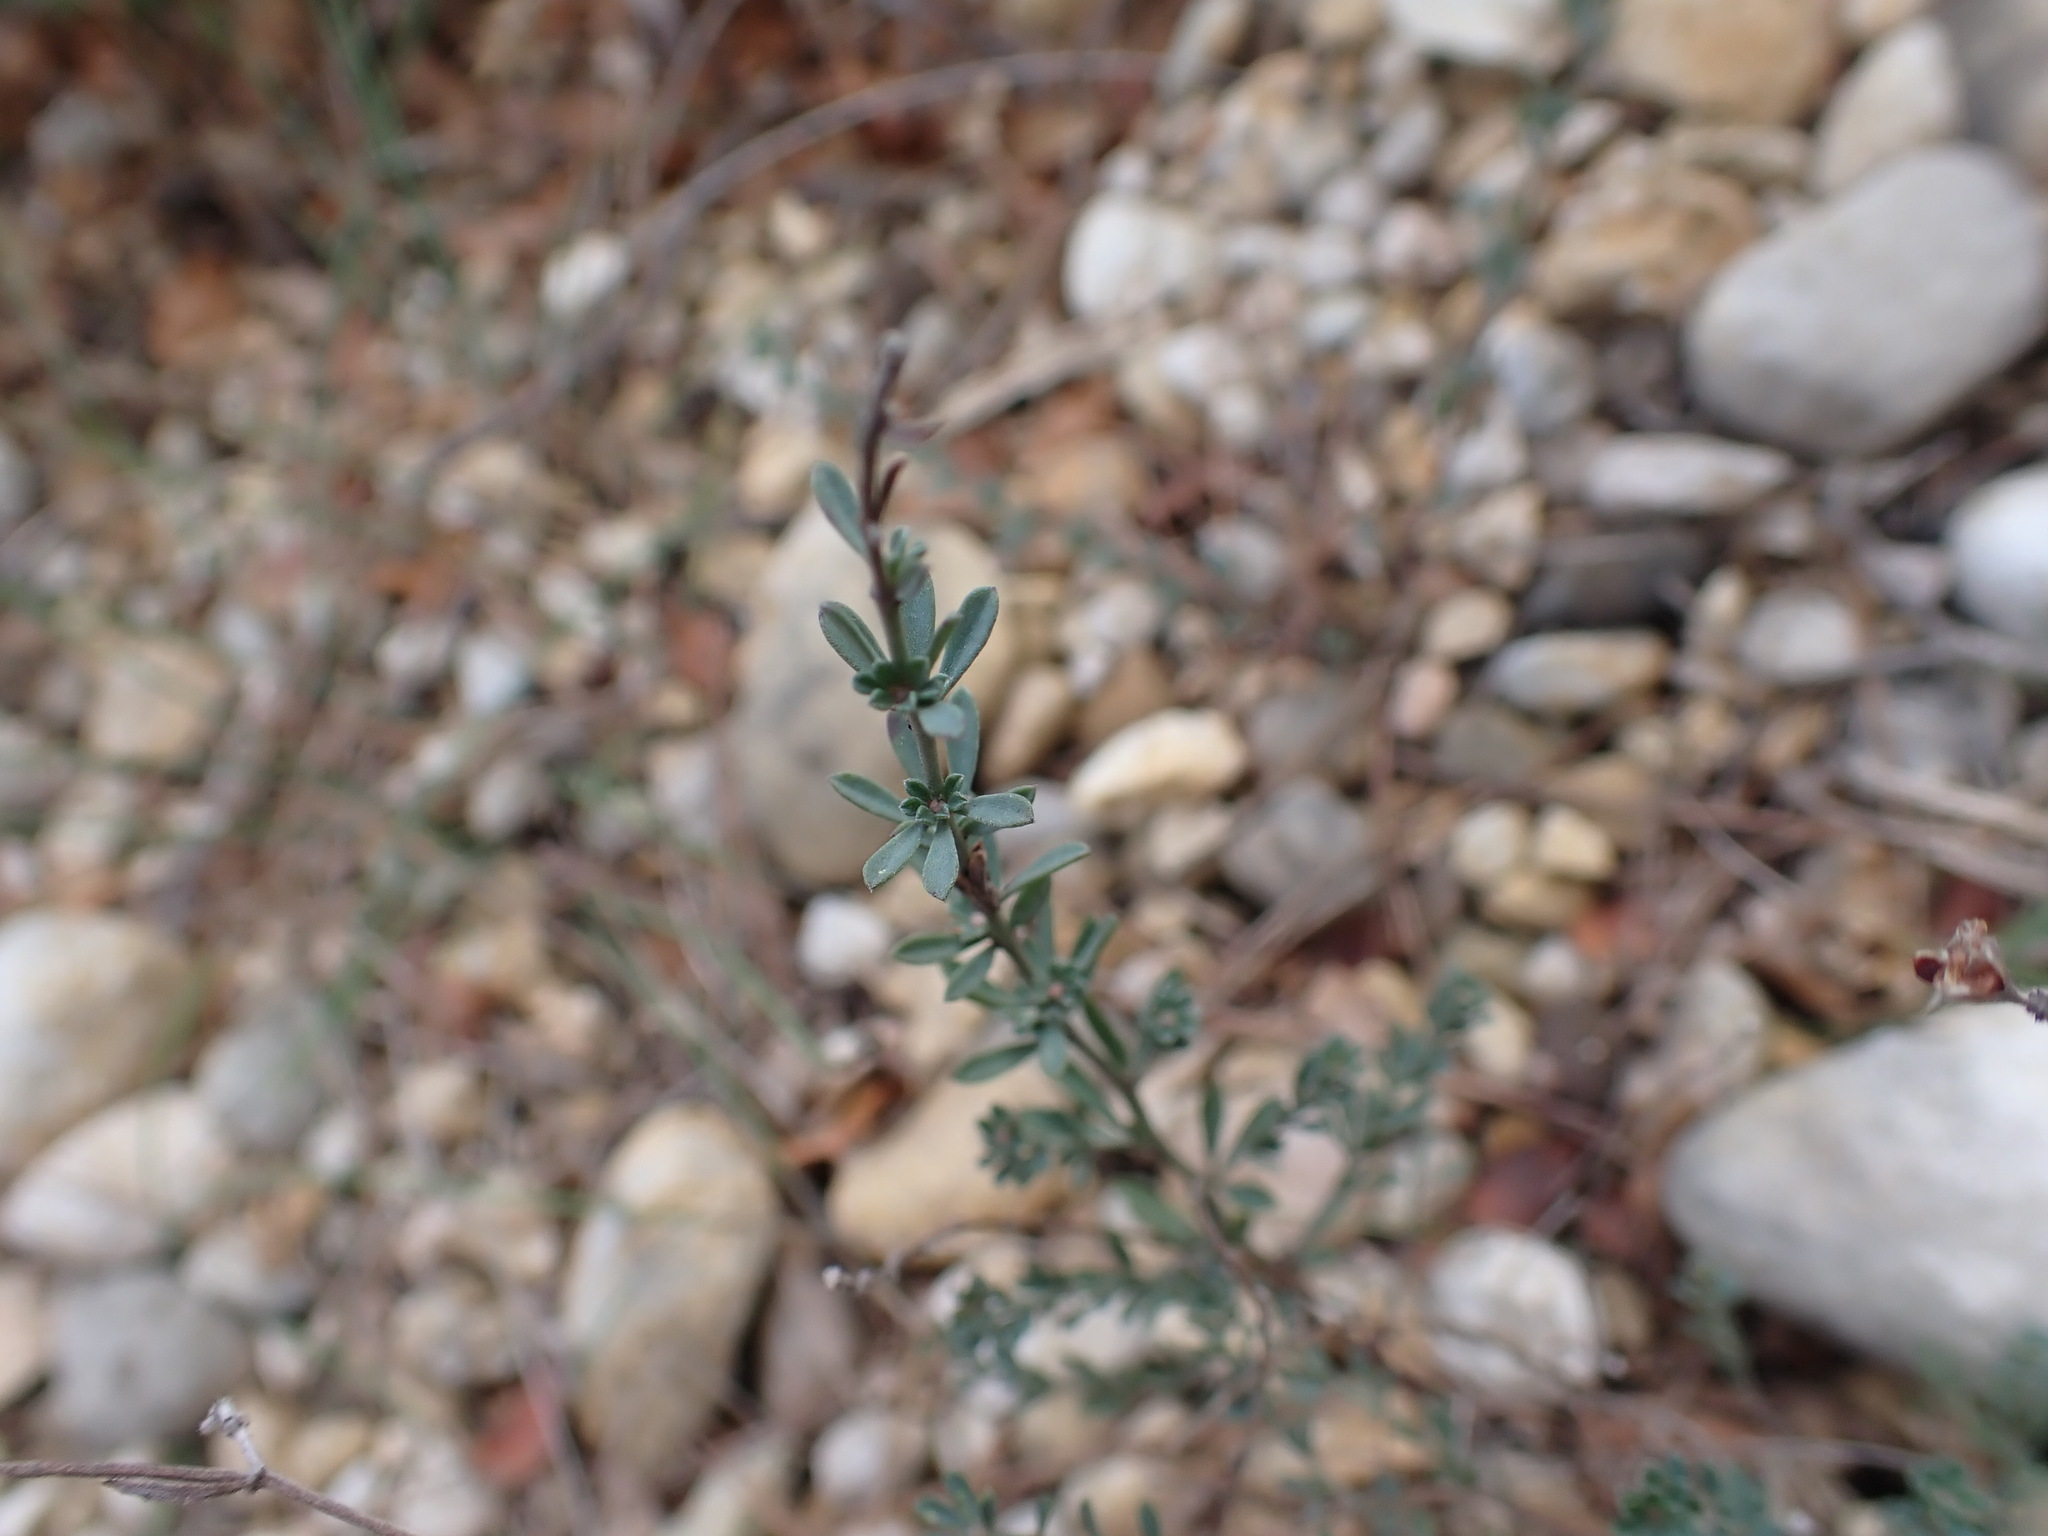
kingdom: Plantae
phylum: Tracheophyta
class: Magnoliopsida
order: Fabales
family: Fabaceae
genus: Lotus
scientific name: Lotus dorycnium
